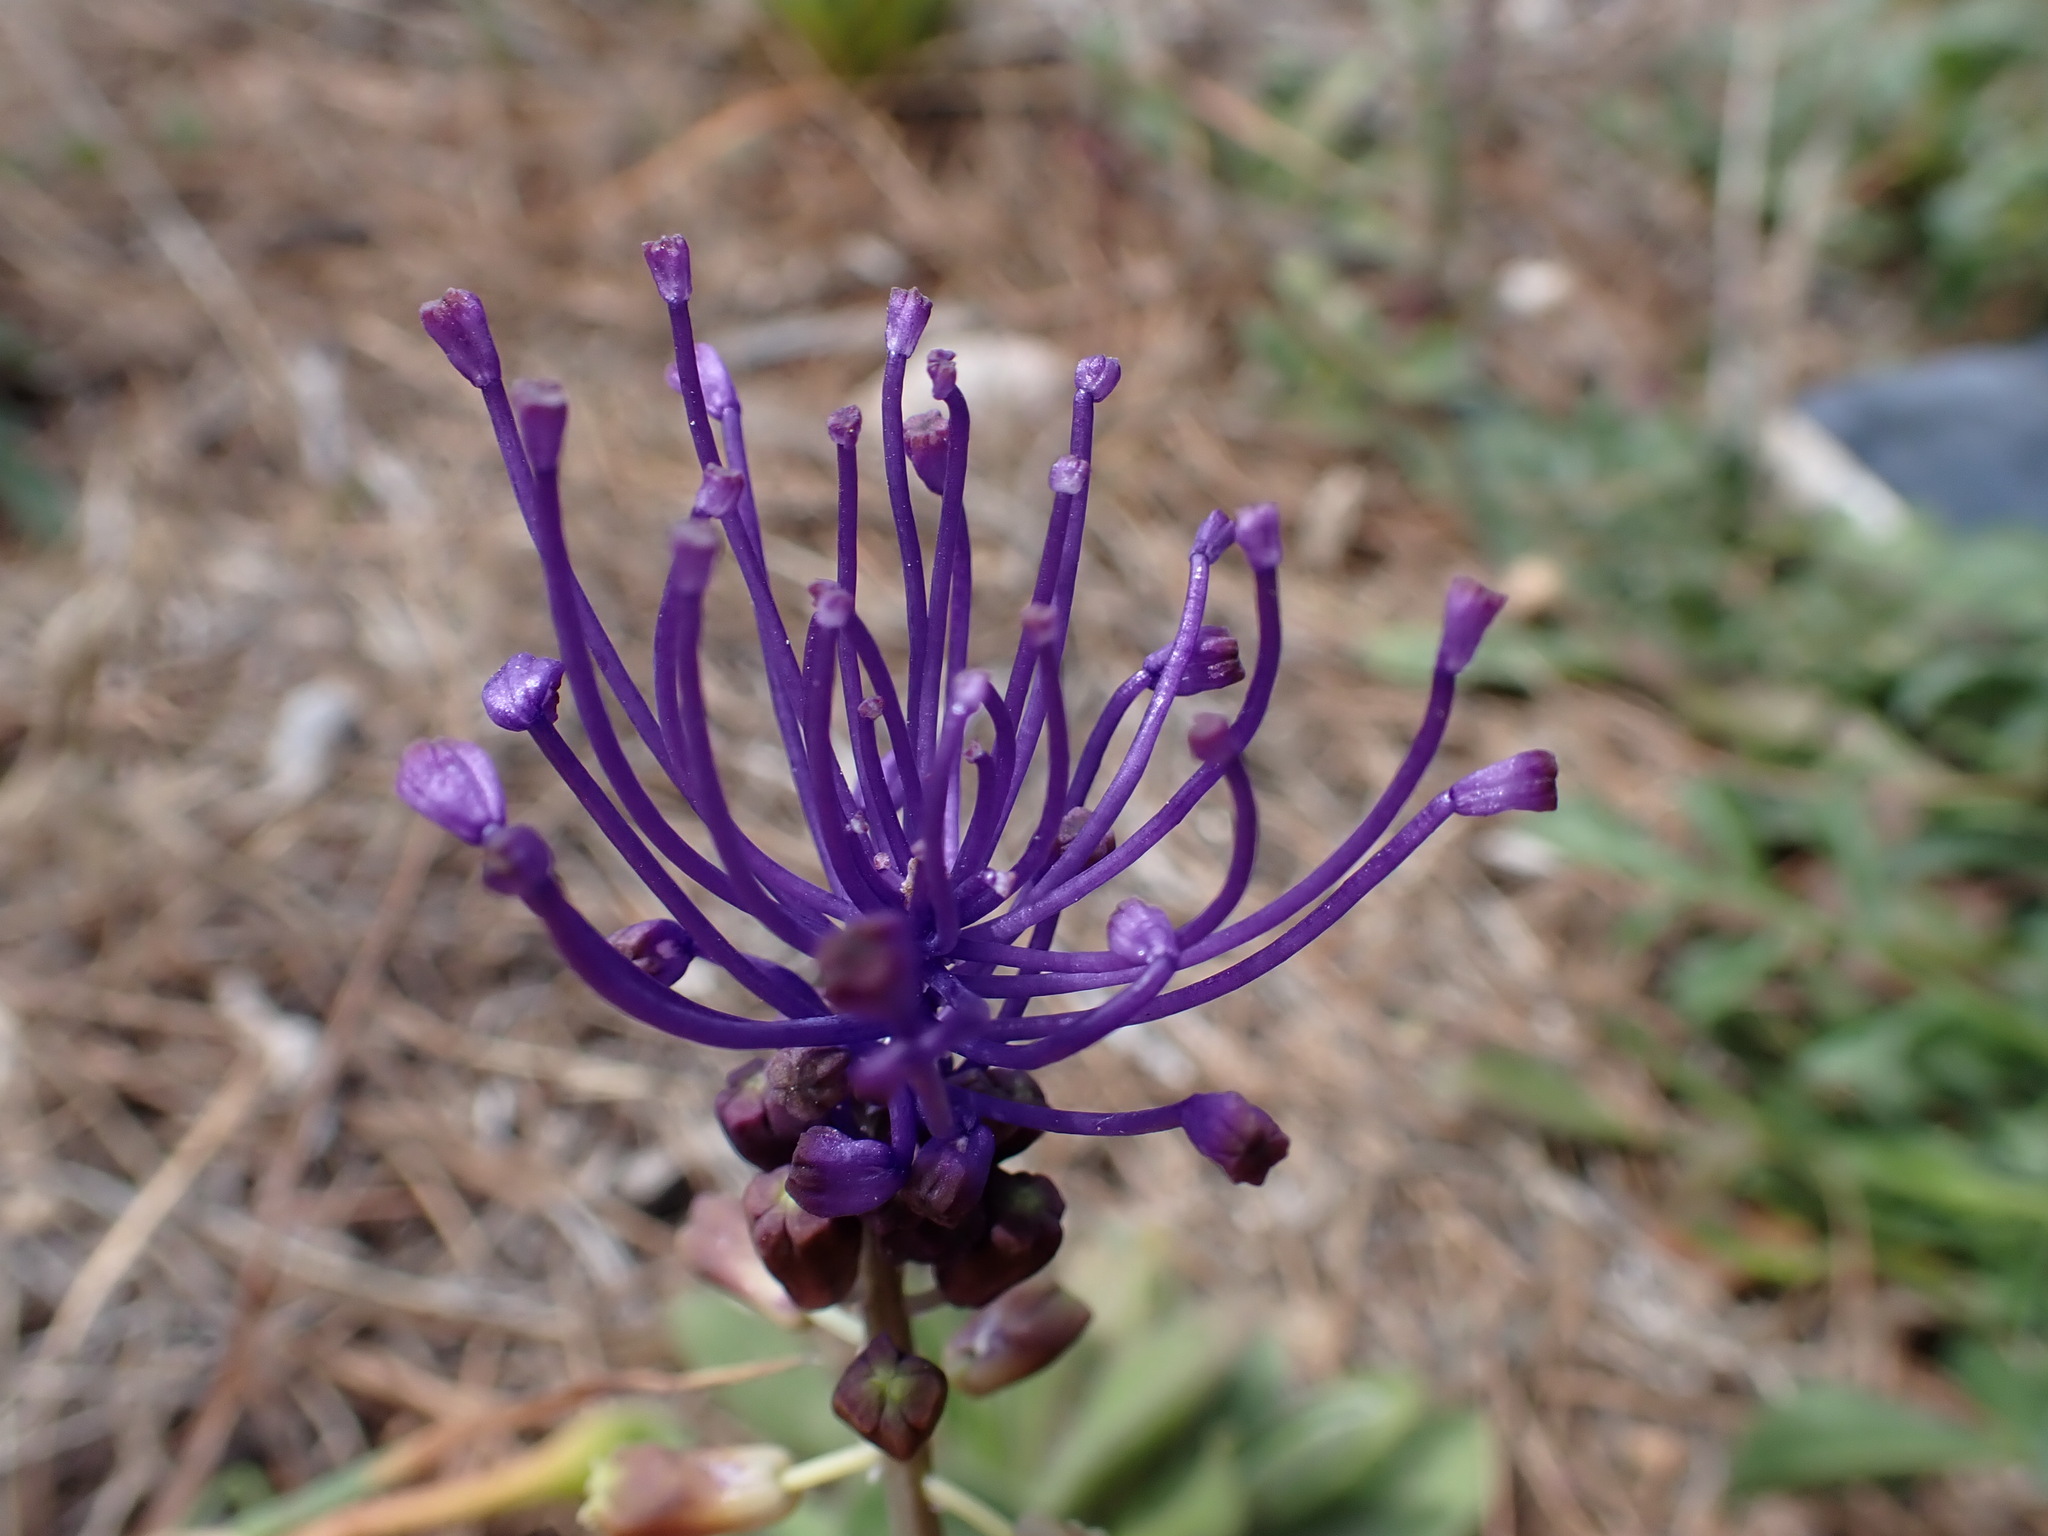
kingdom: Plantae
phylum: Tracheophyta
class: Liliopsida
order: Asparagales
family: Asparagaceae
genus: Muscari
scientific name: Muscari comosum
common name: Tassel hyacinth
